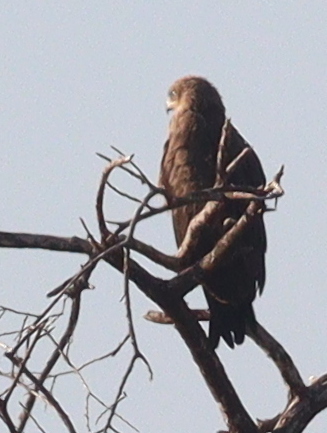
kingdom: Animalia
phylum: Chordata
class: Aves
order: Accipitriformes
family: Accipitridae
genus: Milvus
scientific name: Milvus migrans
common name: Black kite
